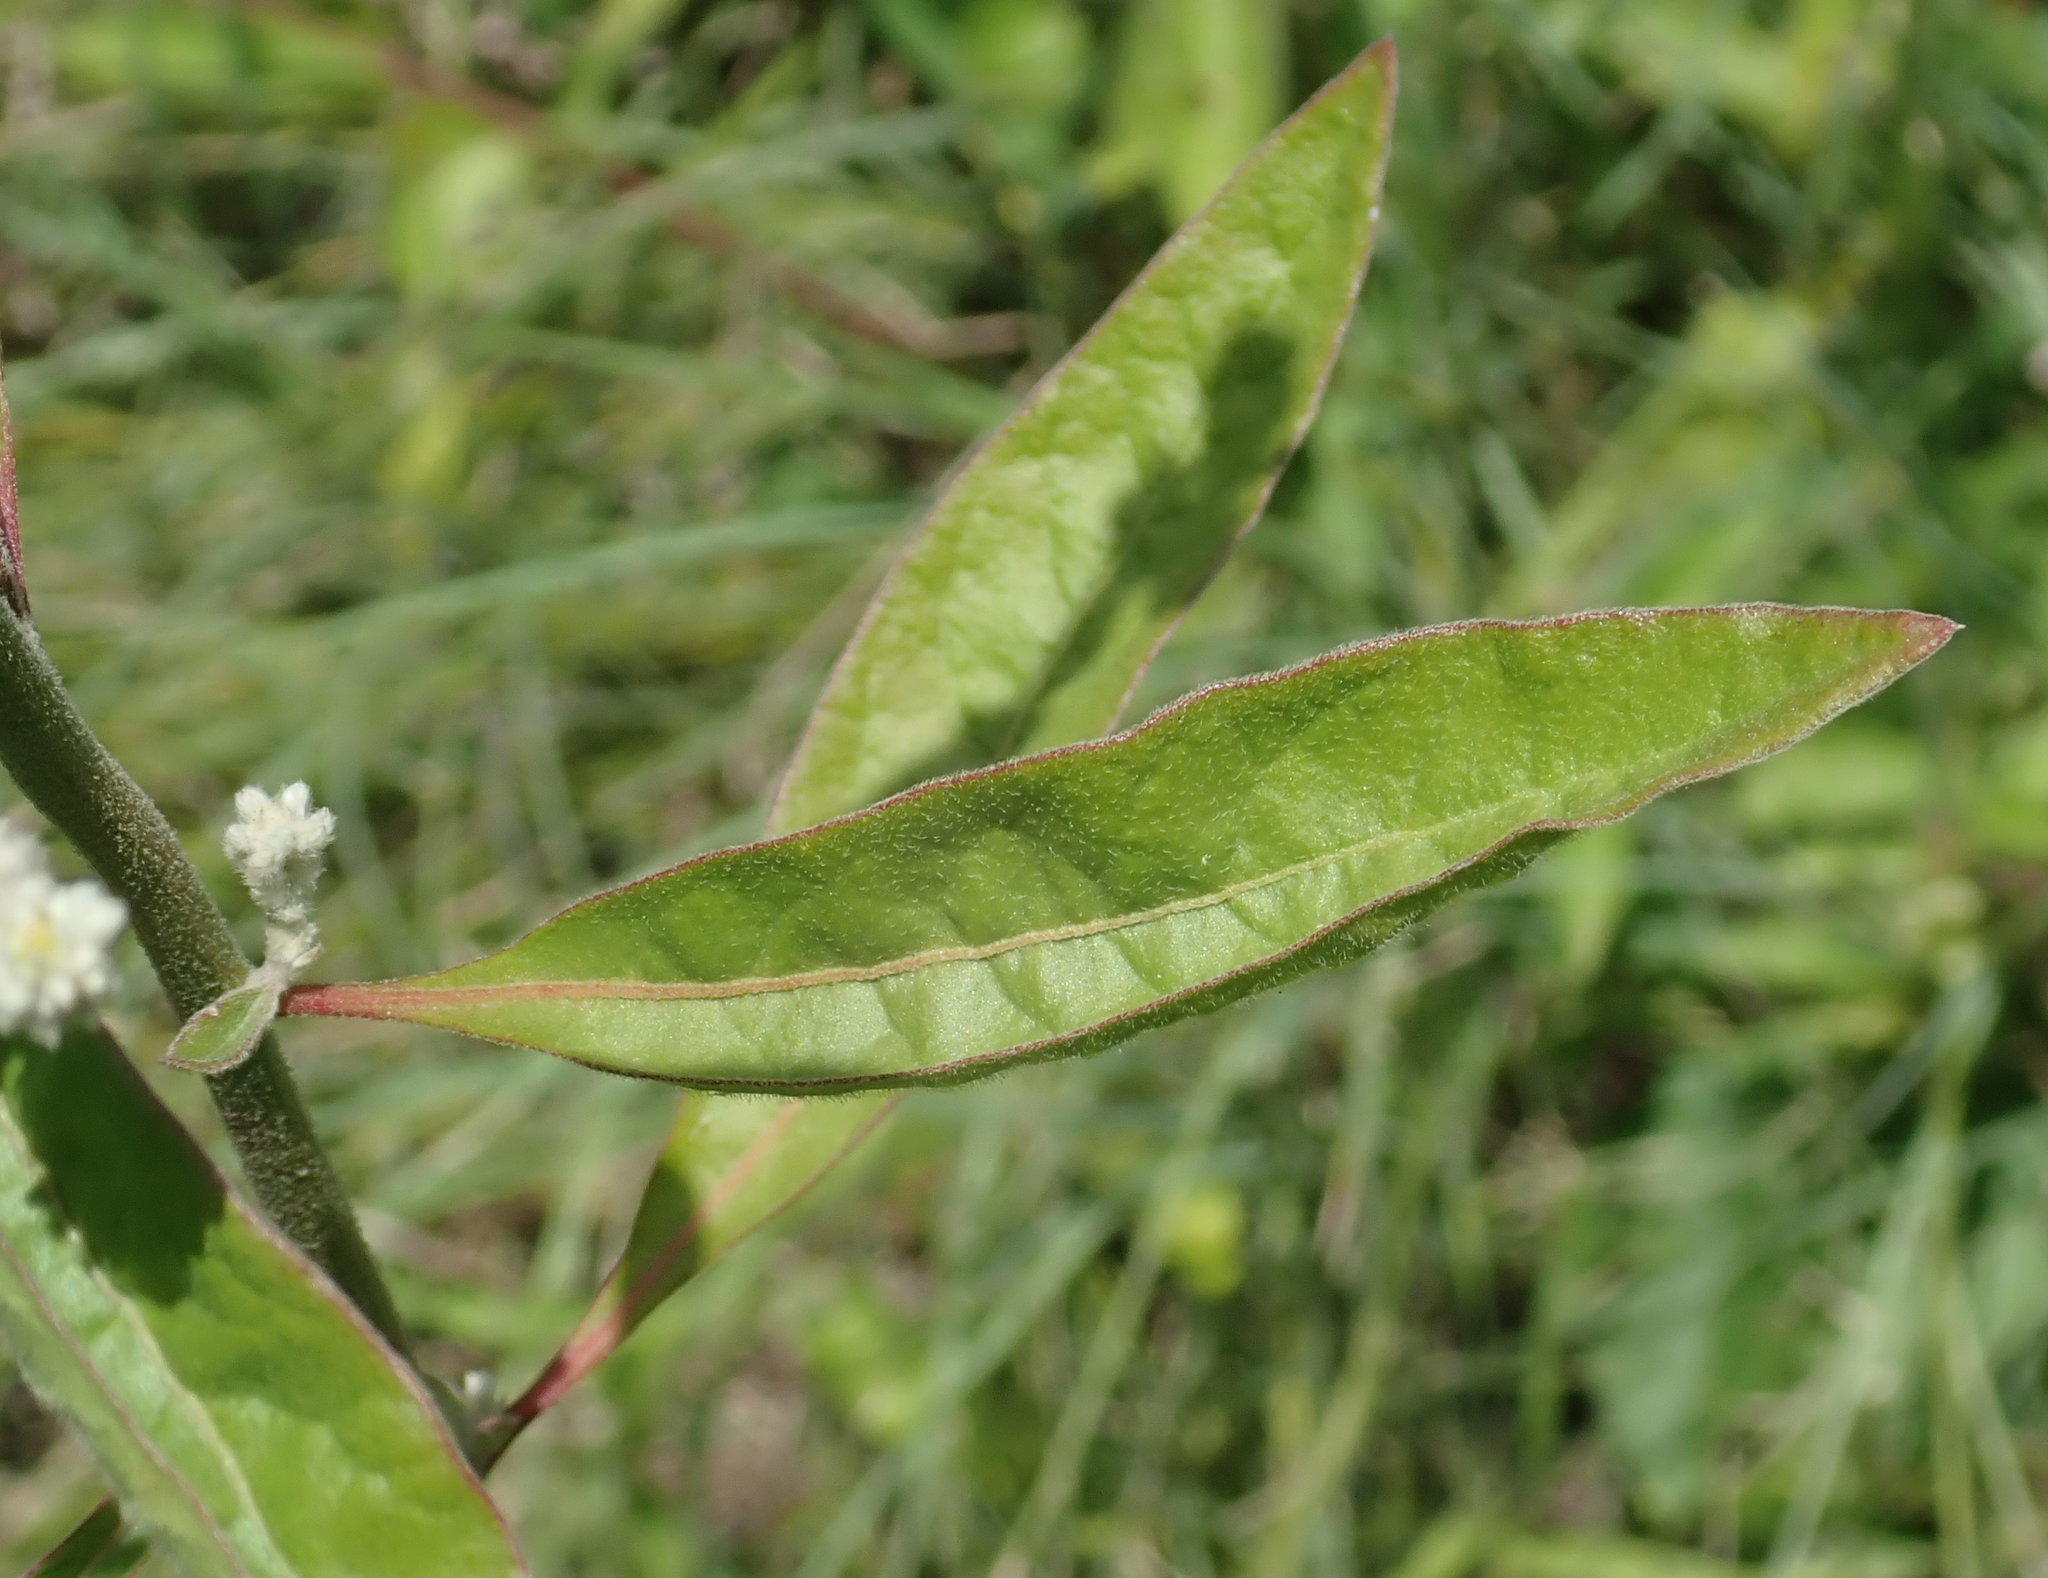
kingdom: Plantae
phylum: Tracheophyta
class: Magnoliopsida
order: Caryophyllales
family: Amaranthaceae
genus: Ouret
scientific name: Ouret leucura
